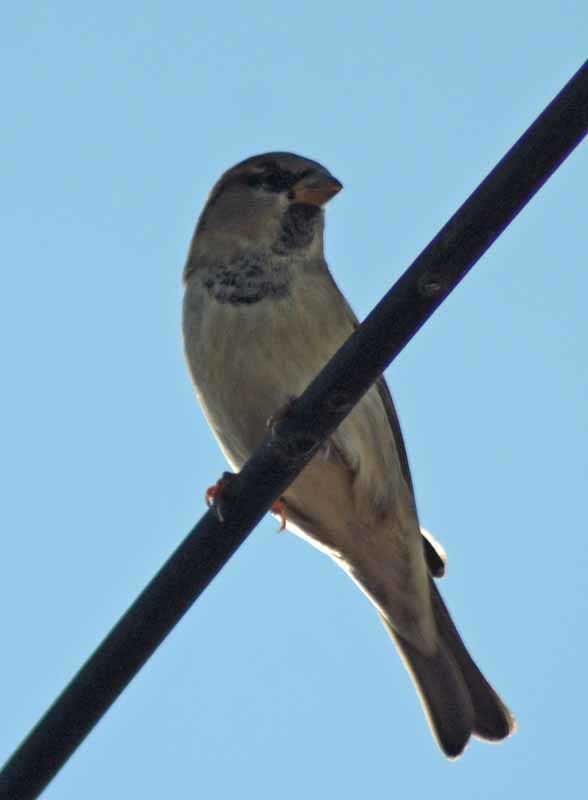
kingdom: Animalia
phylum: Chordata
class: Aves
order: Passeriformes
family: Passeridae
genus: Passer
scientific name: Passer domesticus
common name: House sparrow
